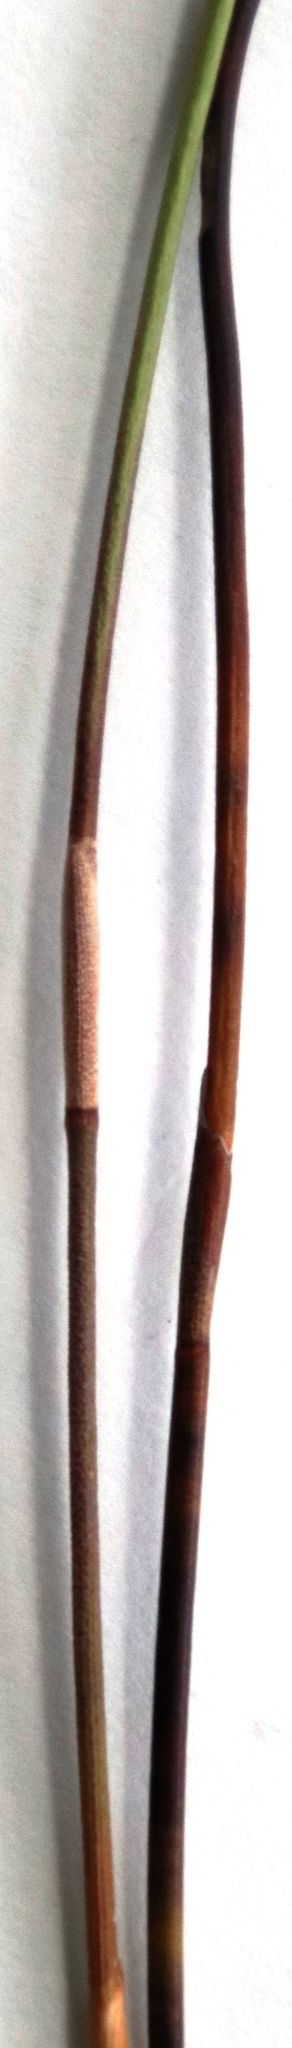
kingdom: Plantae
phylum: Tracheophyta
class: Liliopsida
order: Poales
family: Restionaceae
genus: Restio
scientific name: Restio bifurcus
